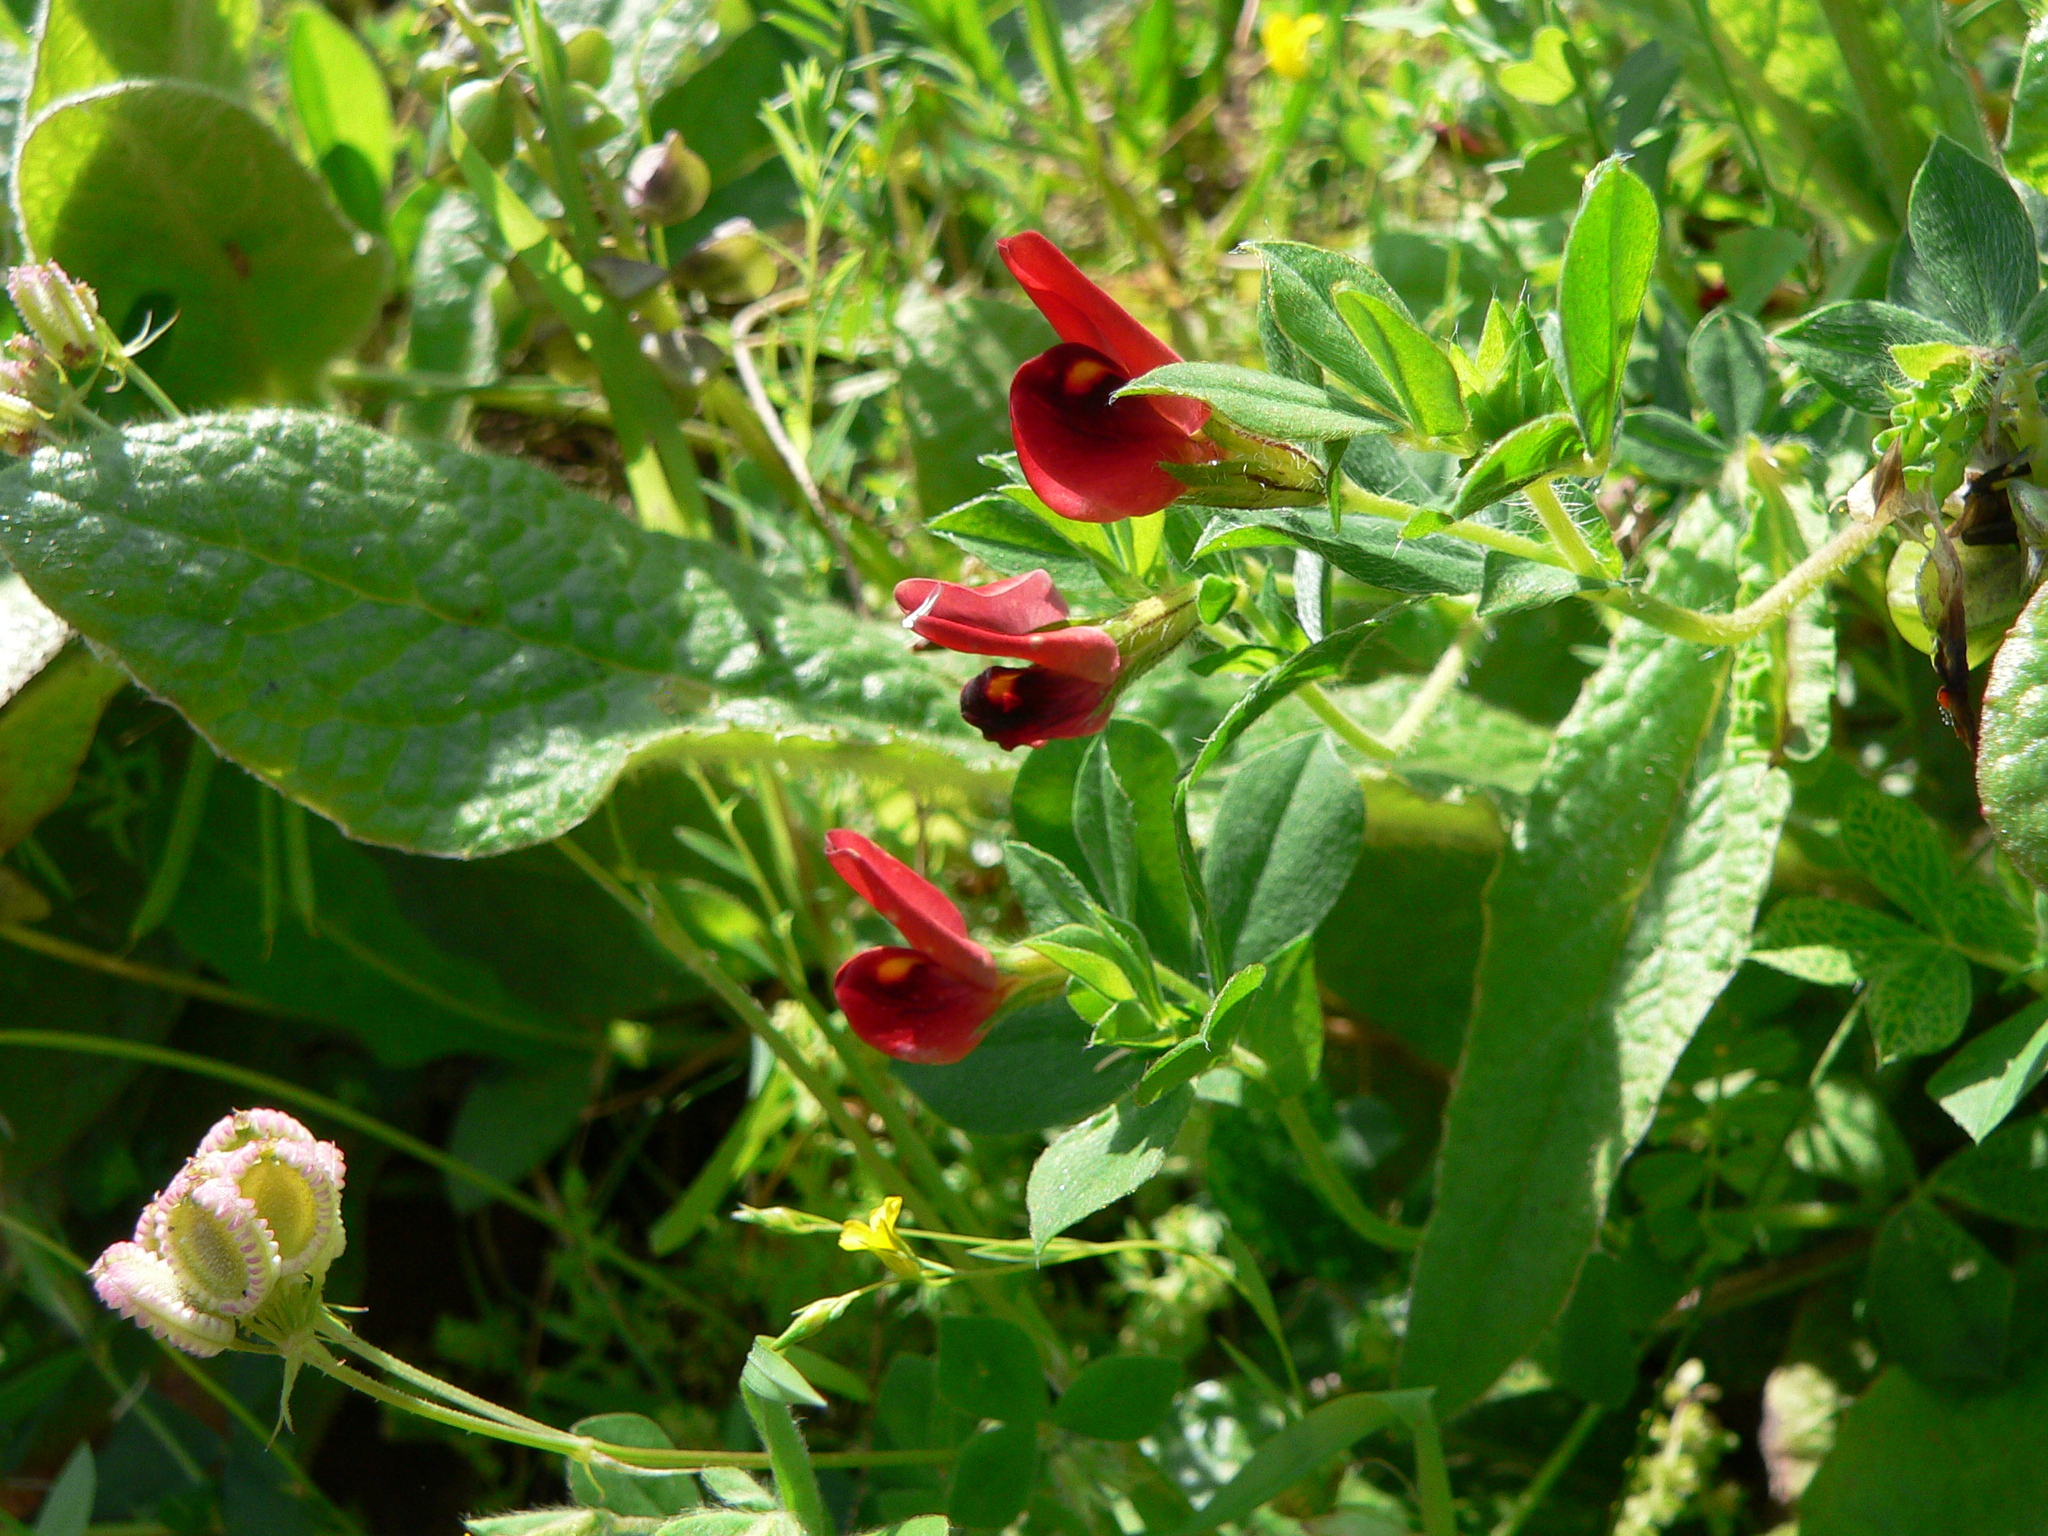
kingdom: Plantae
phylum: Tracheophyta
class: Magnoliopsida
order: Fabales
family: Fabaceae
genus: Lotus
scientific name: Lotus tetragonolobus
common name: Asparagus-pea
